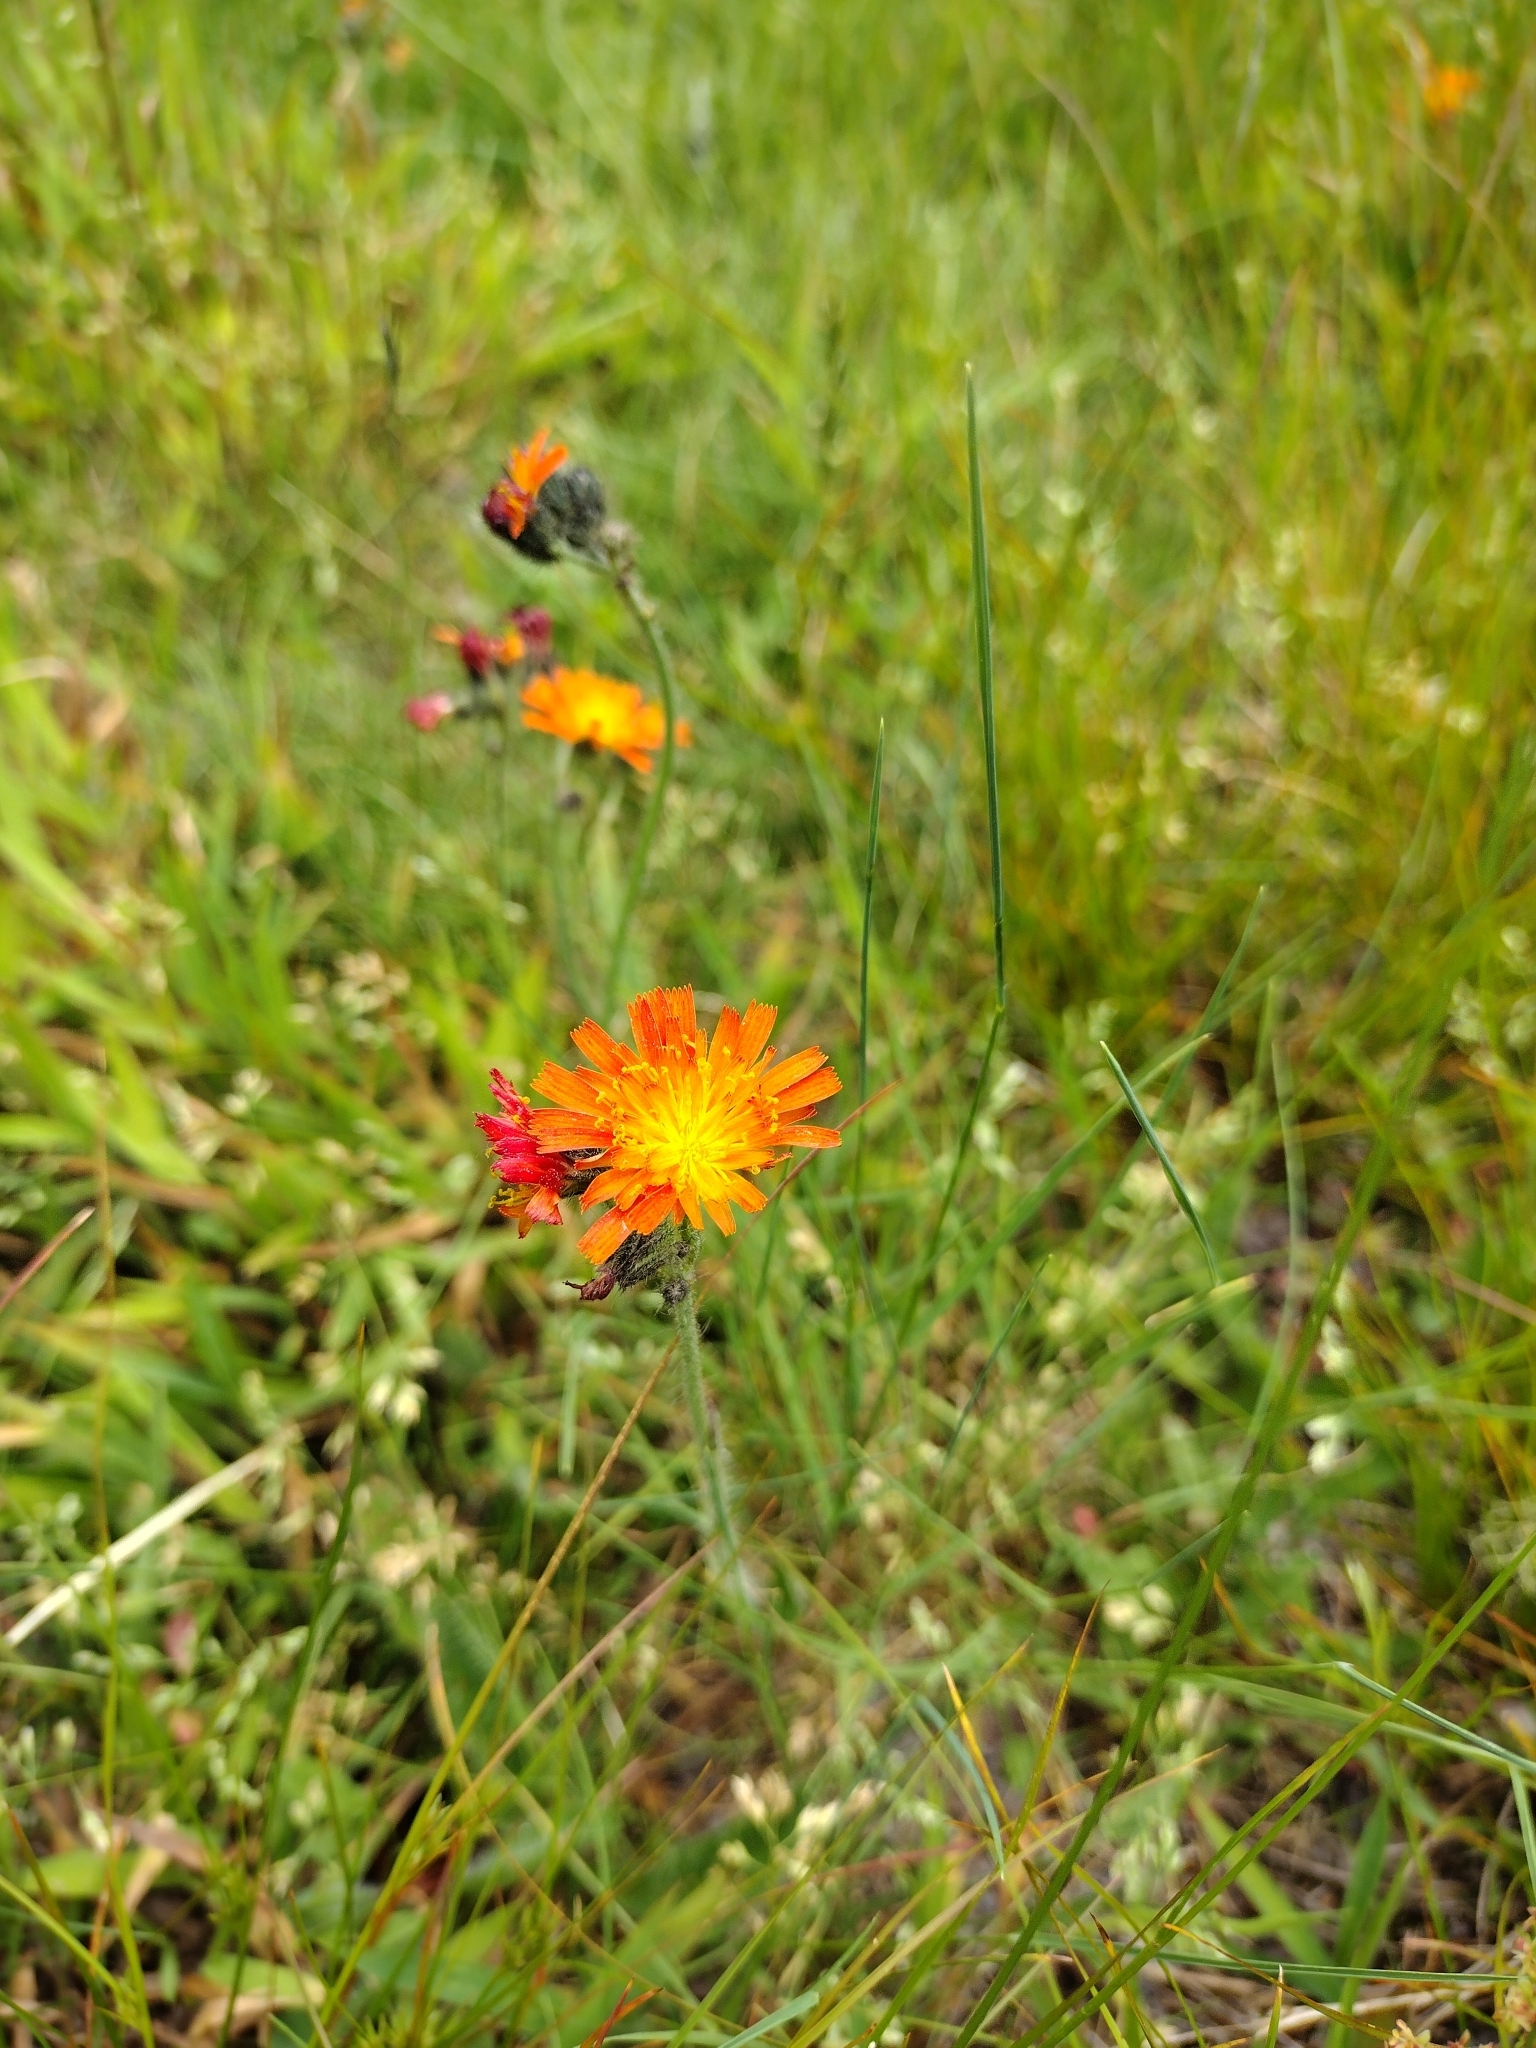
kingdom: Plantae
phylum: Tracheophyta
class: Magnoliopsida
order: Asterales
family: Asteraceae
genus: Pilosella
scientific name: Pilosella aurantiaca
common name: Fox-and-cubs
